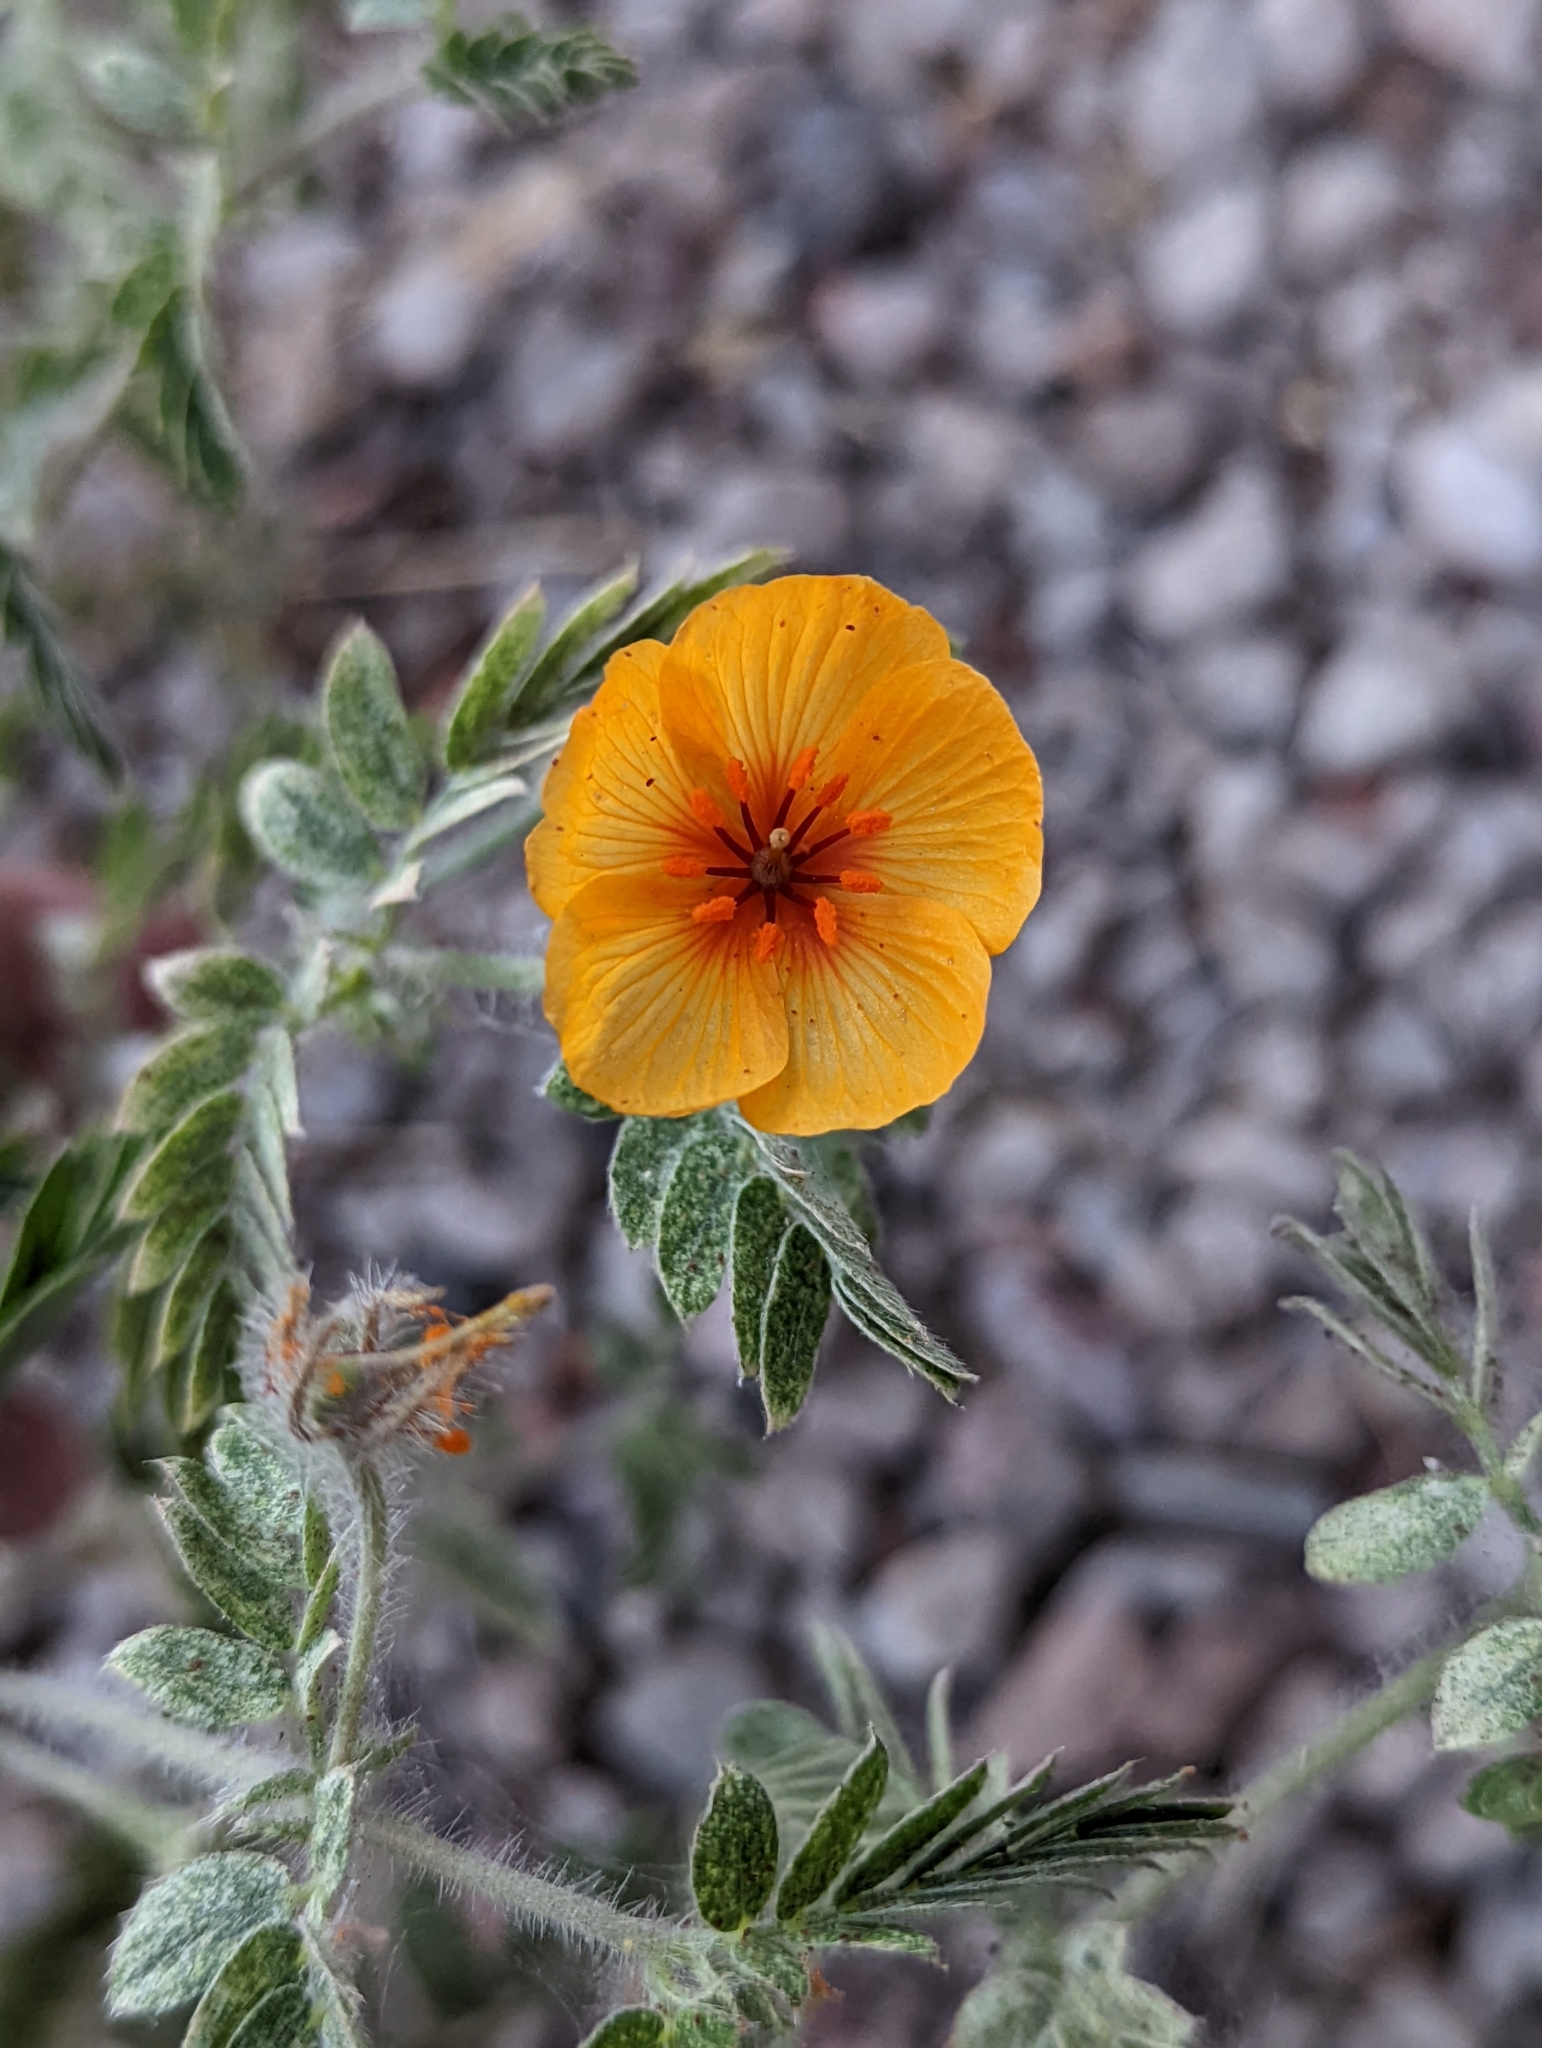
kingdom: Plantae
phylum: Tracheophyta
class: Magnoliopsida
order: Zygophyllales
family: Zygophyllaceae
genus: Kallstroemia
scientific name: Kallstroemia grandiflora
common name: Arizona-poppy
